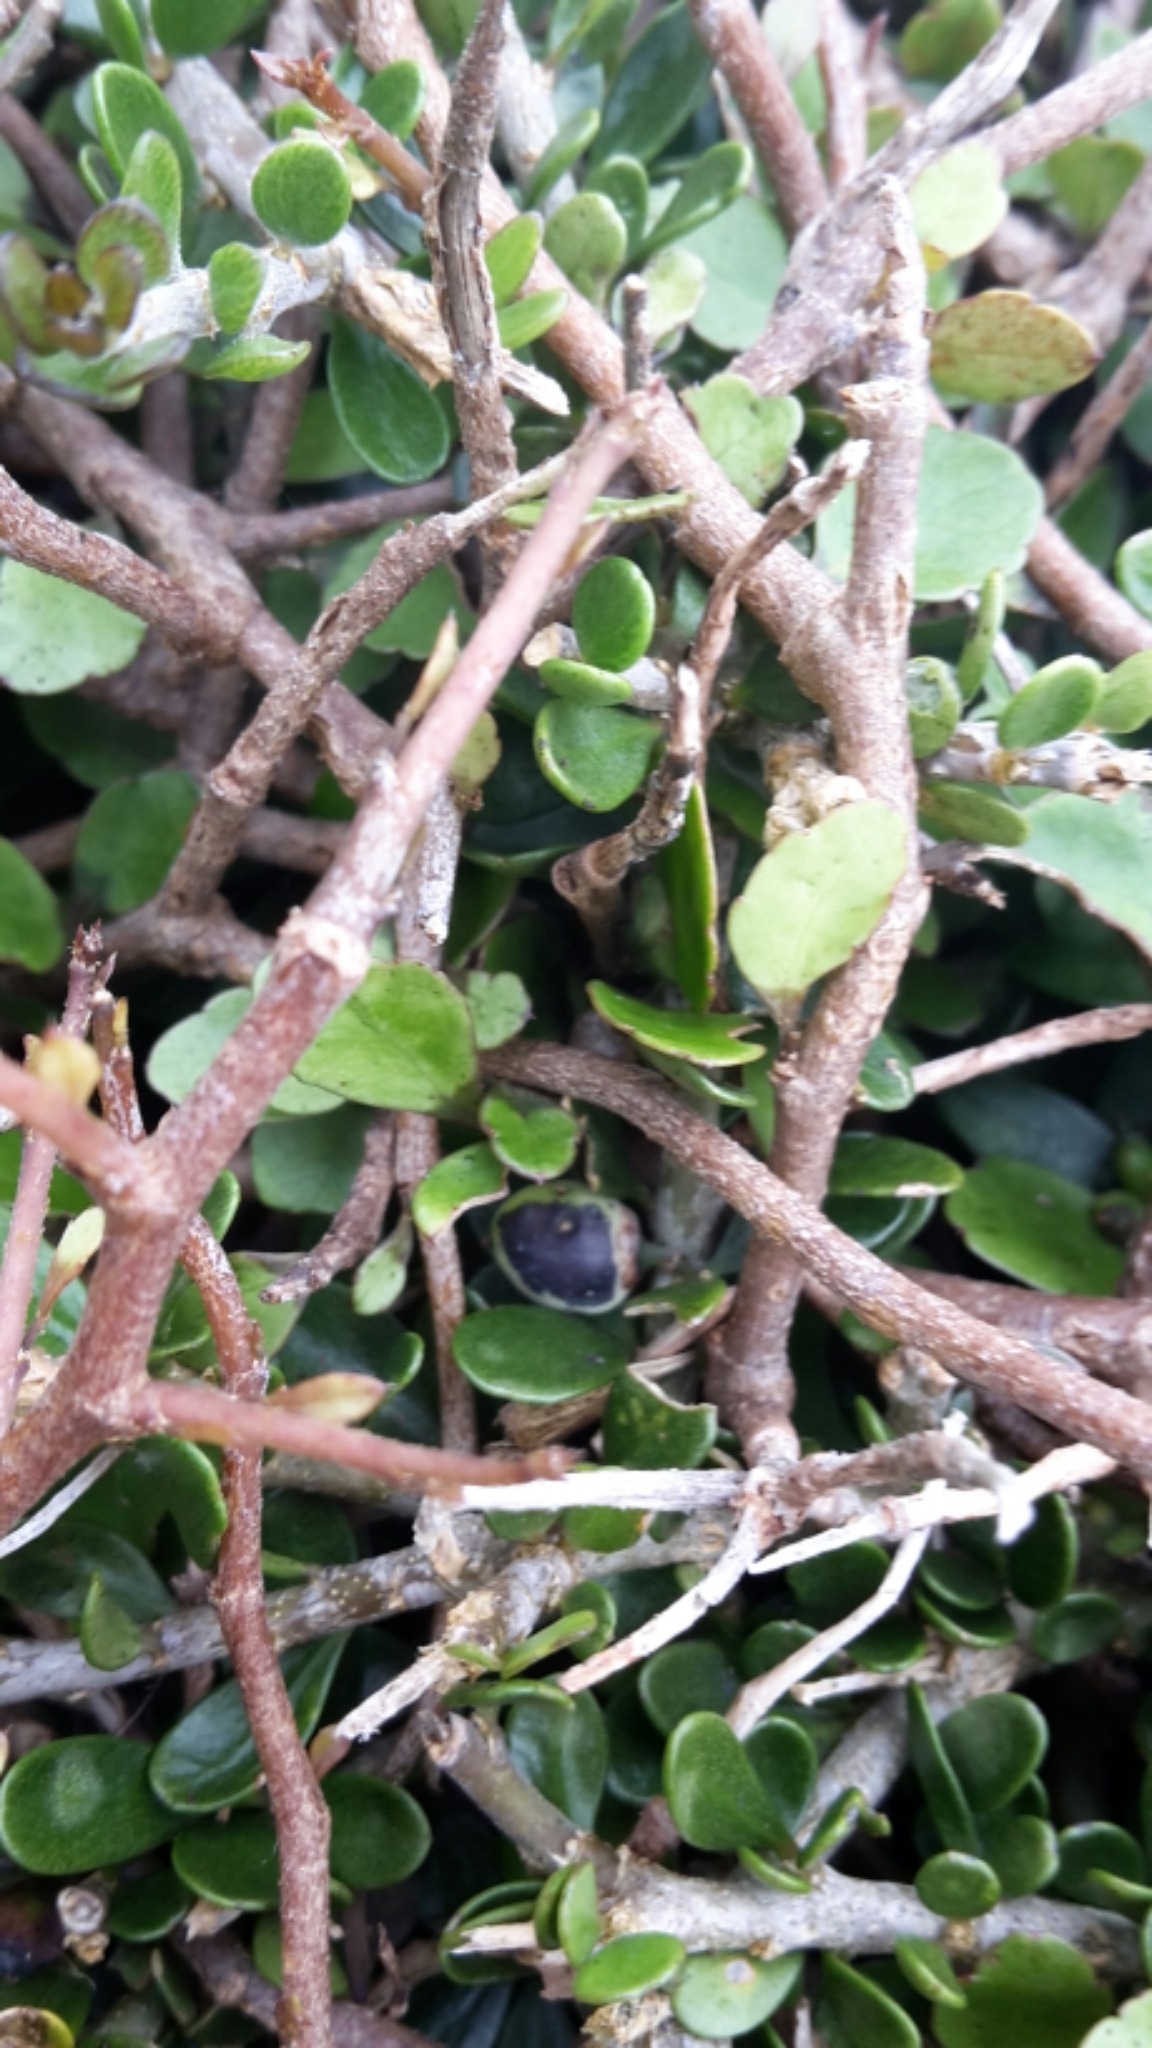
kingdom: Plantae
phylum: Tracheophyta
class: Magnoliopsida
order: Malpighiales
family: Violaceae
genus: Melicytus
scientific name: Melicytus crassifolius
